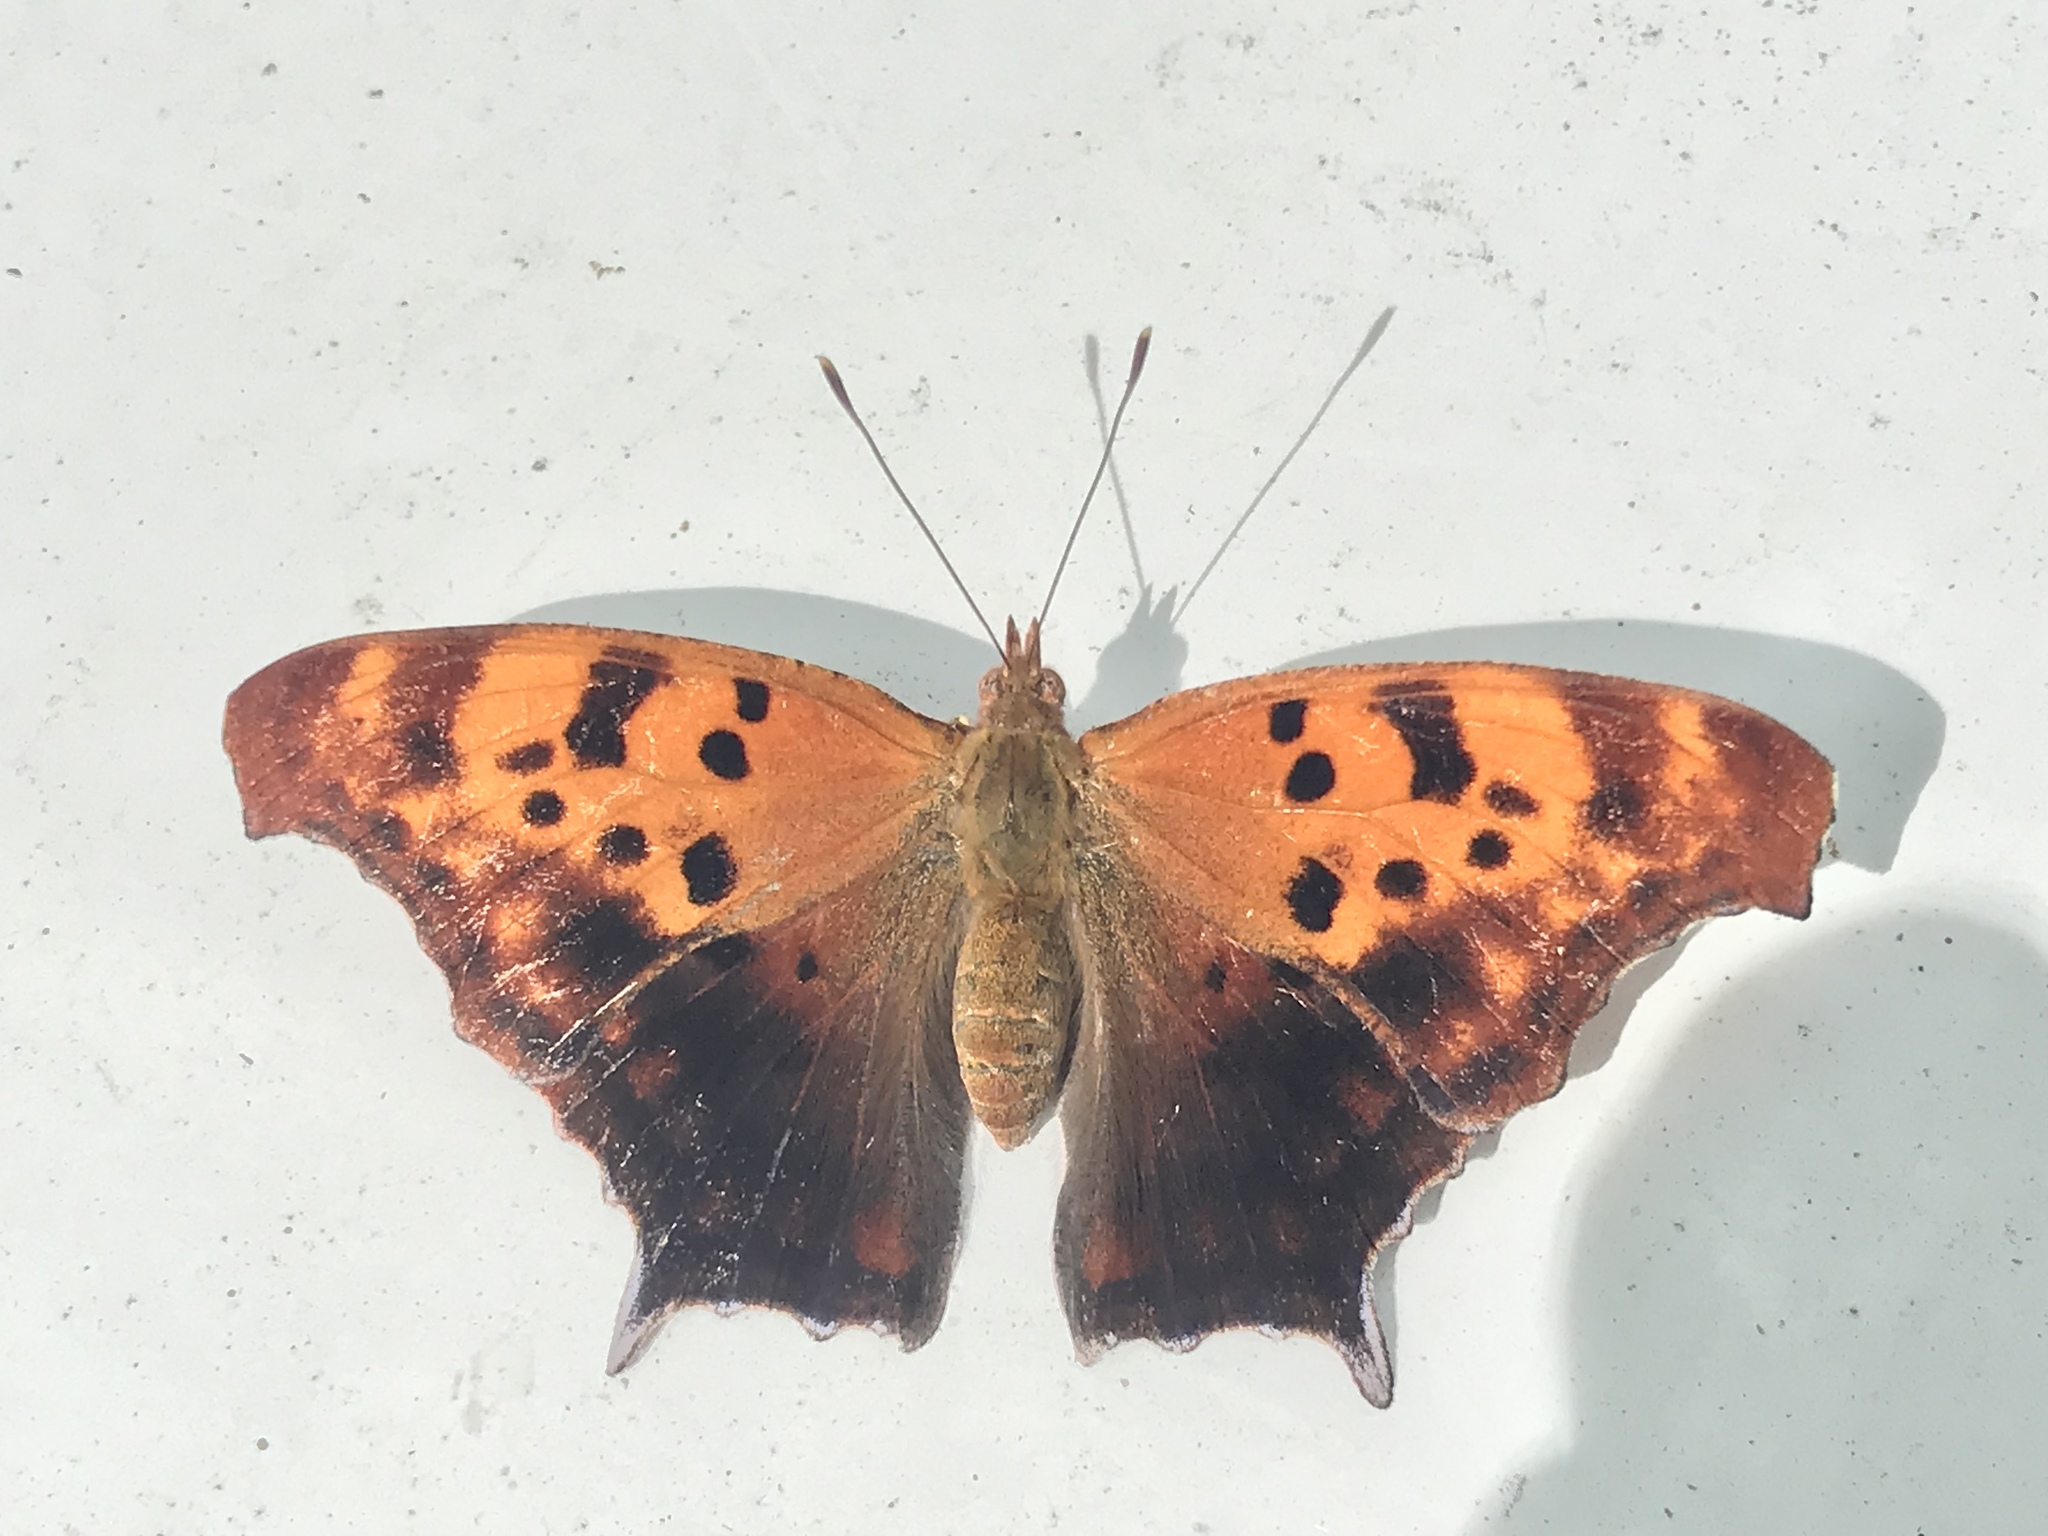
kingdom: Animalia
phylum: Arthropoda
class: Insecta
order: Lepidoptera
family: Nymphalidae
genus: Polygonia
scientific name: Polygonia interrogationis
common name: Question mark
